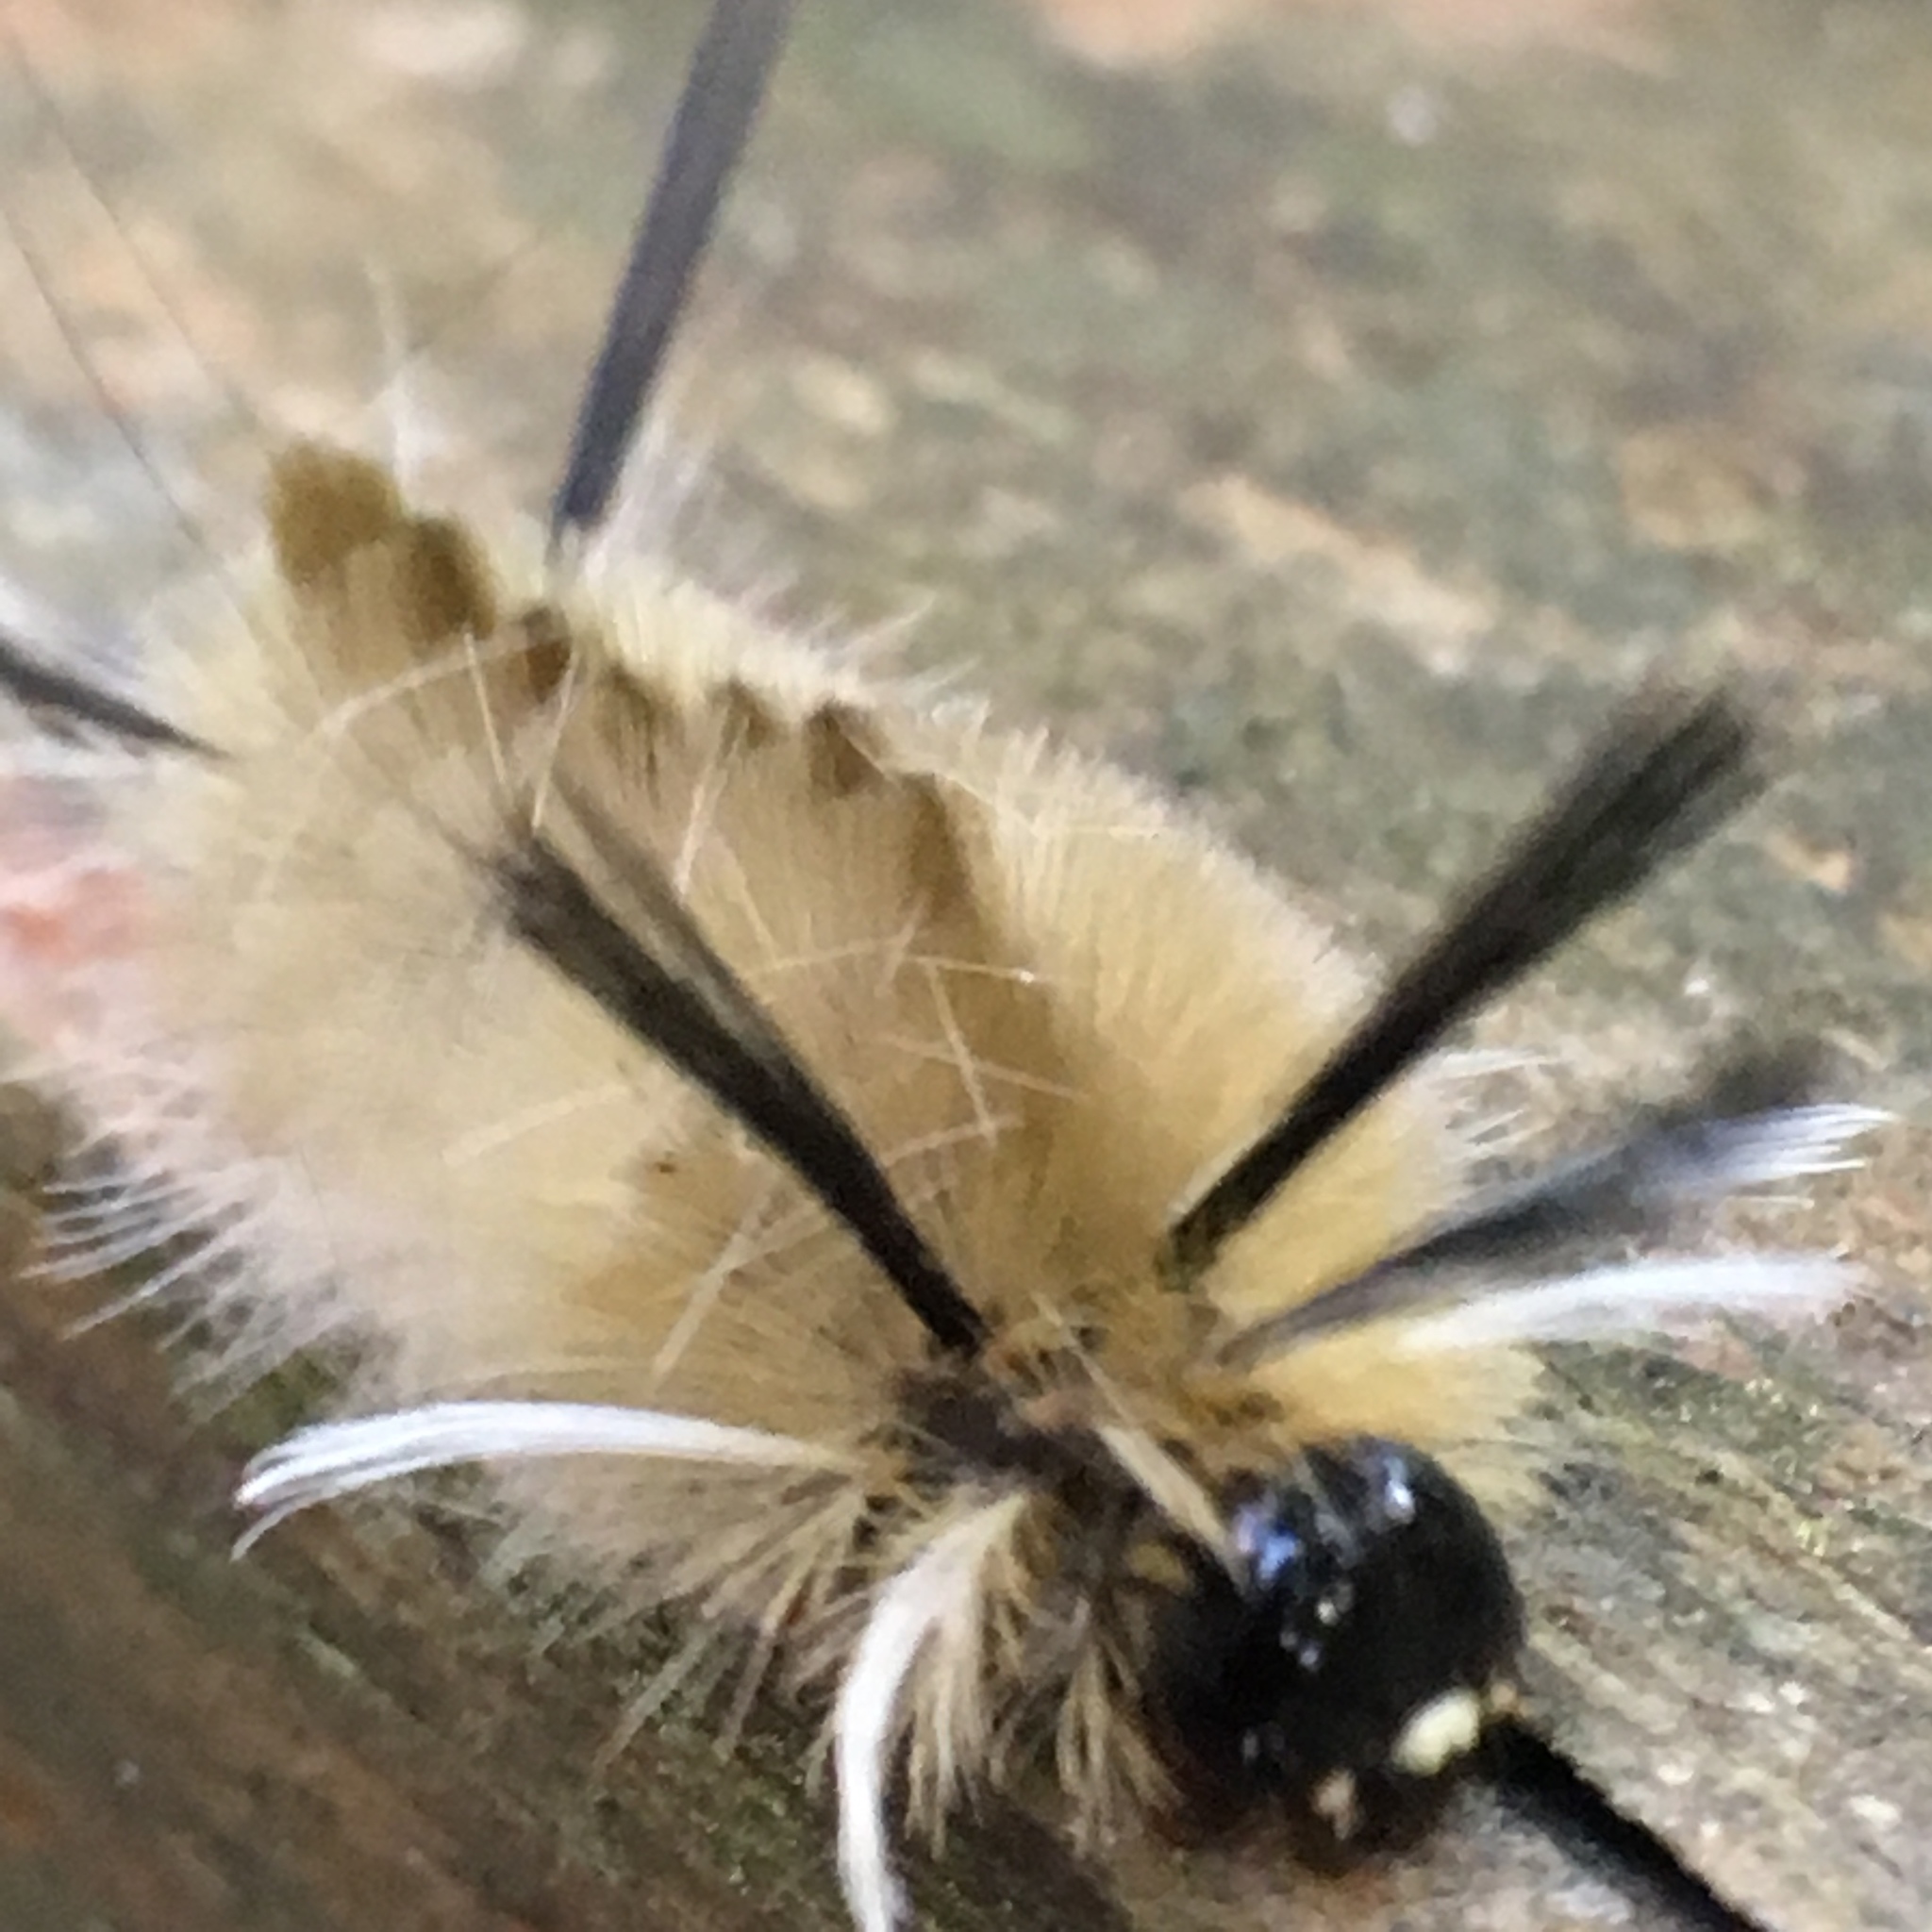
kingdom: Animalia
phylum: Arthropoda
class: Insecta
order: Lepidoptera
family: Erebidae
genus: Halysidota
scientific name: Halysidota tessellaris
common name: Banded tussock moth
